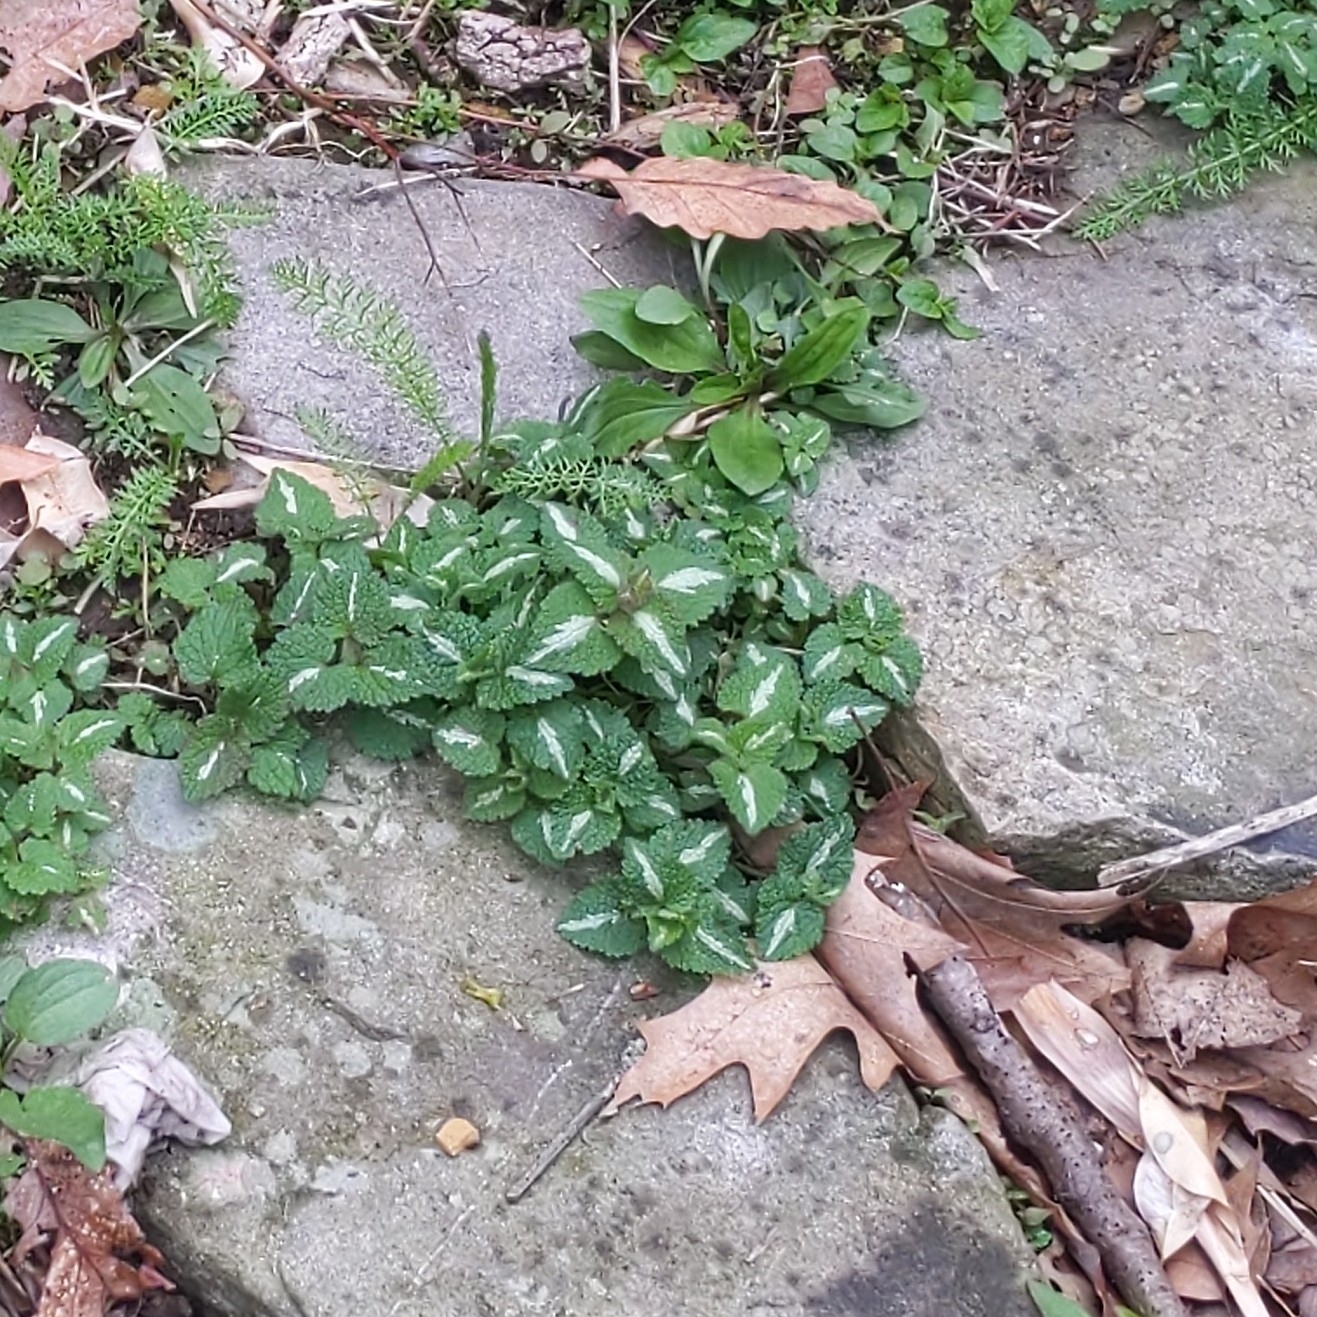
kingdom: Plantae
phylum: Tracheophyta
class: Magnoliopsida
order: Lamiales
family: Lamiaceae
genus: Lamium
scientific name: Lamium maculatum
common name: Spotted dead-nettle
